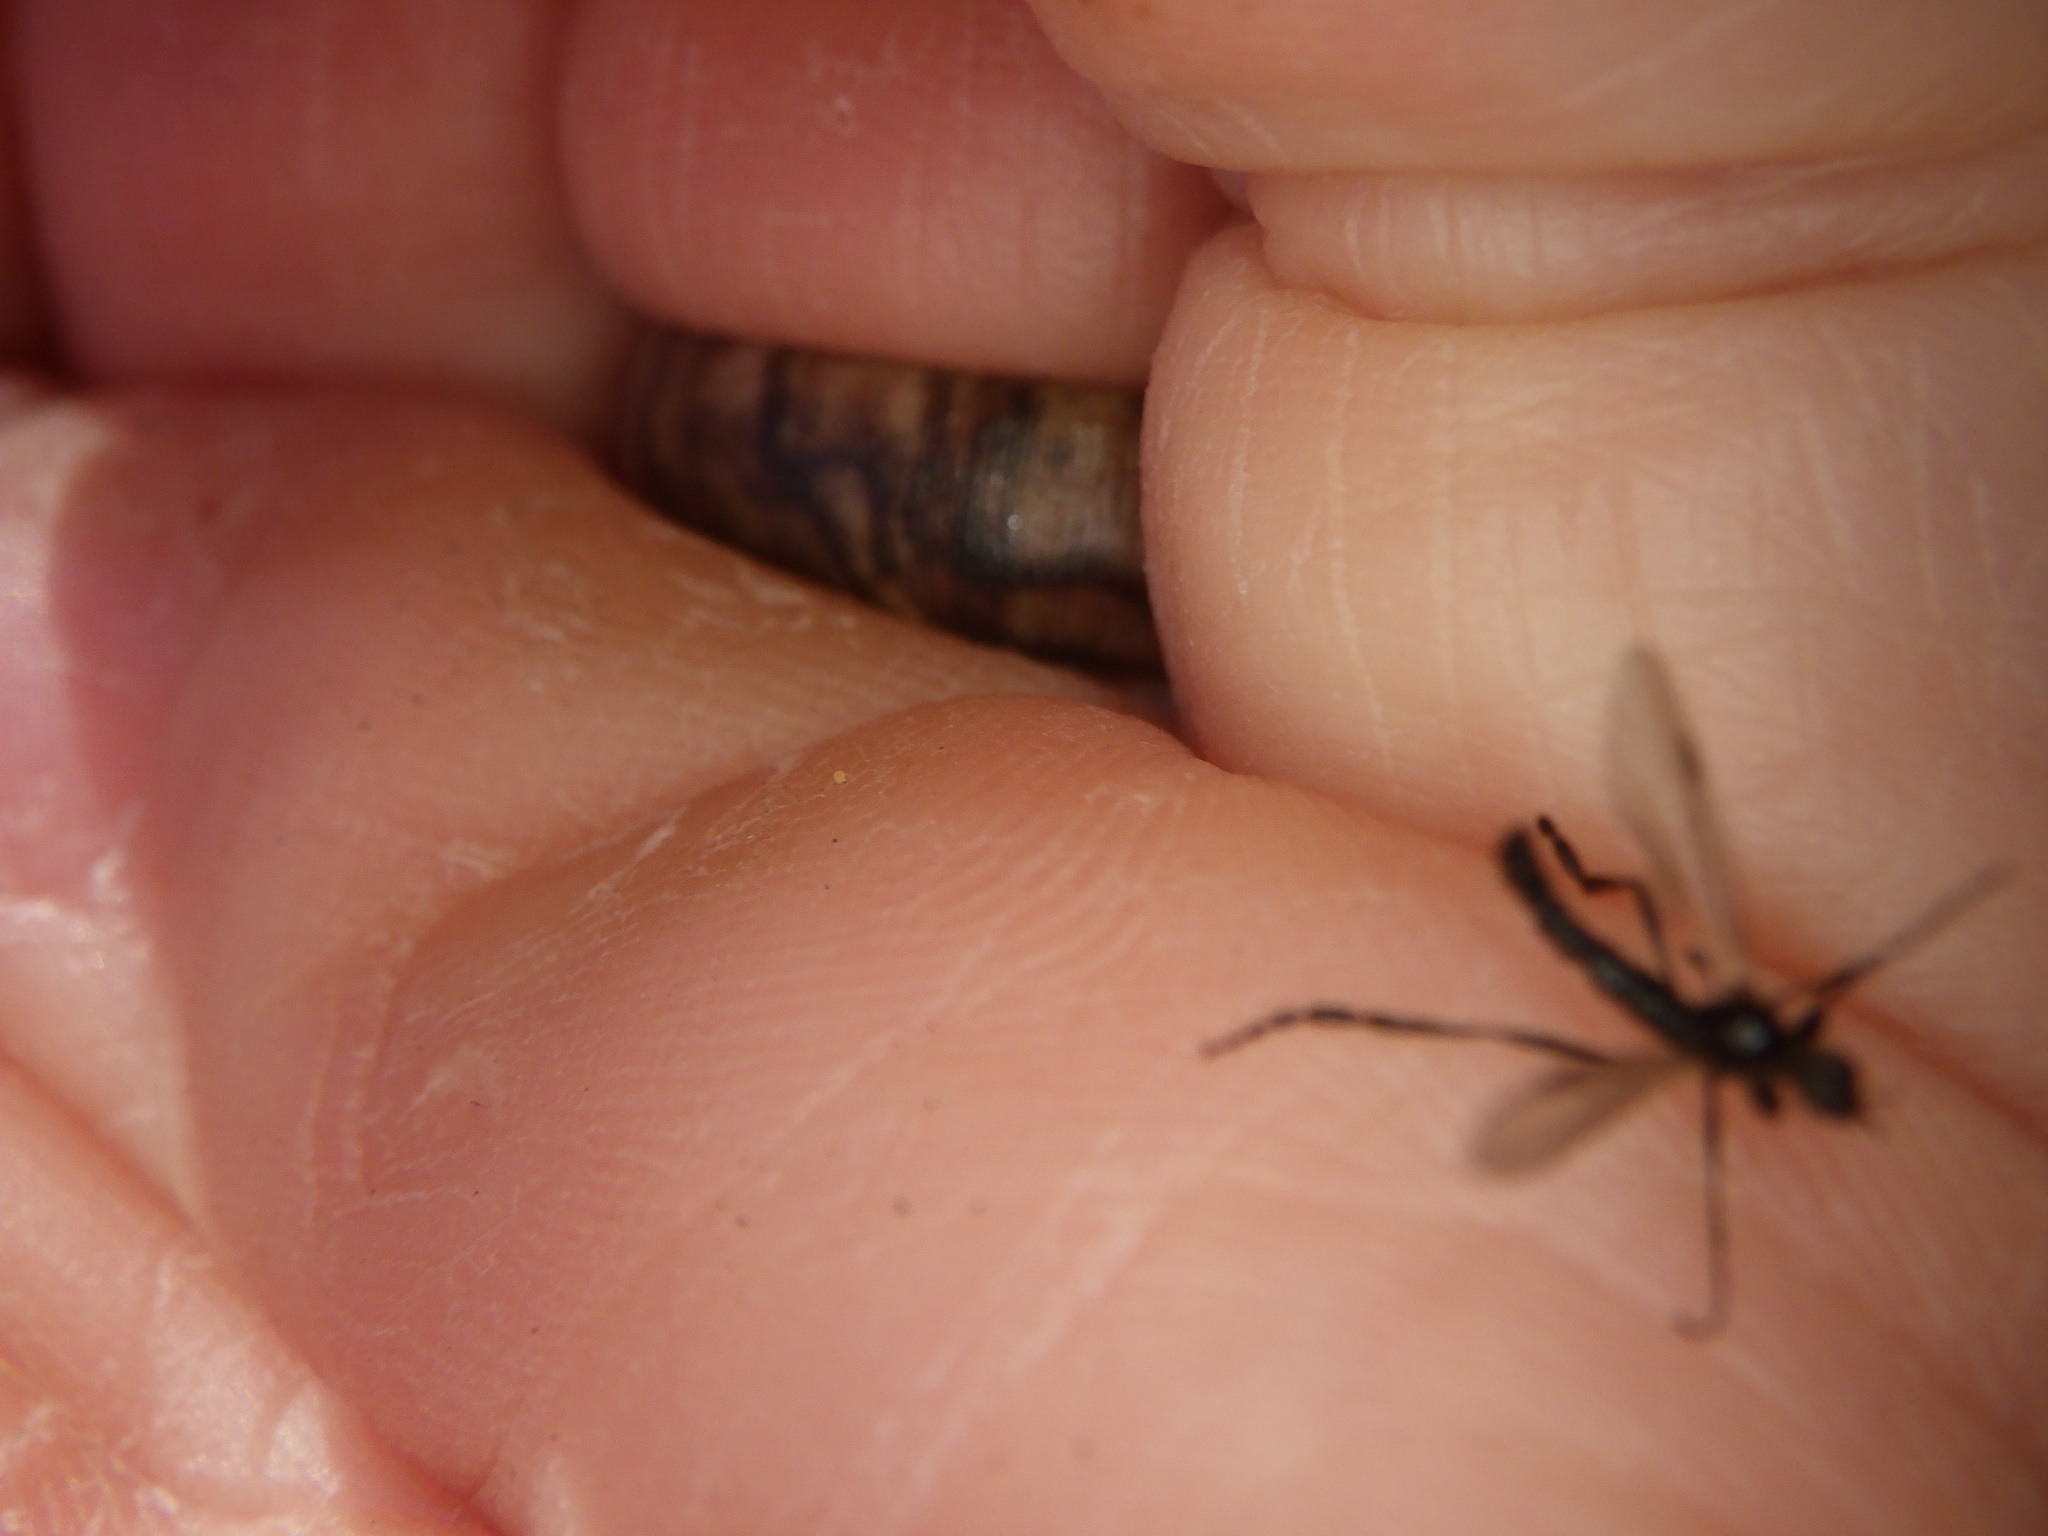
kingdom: Animalia
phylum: Arthropoda
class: Insecta
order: Diptera
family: Bibionidae
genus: Bibio
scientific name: Bibio
